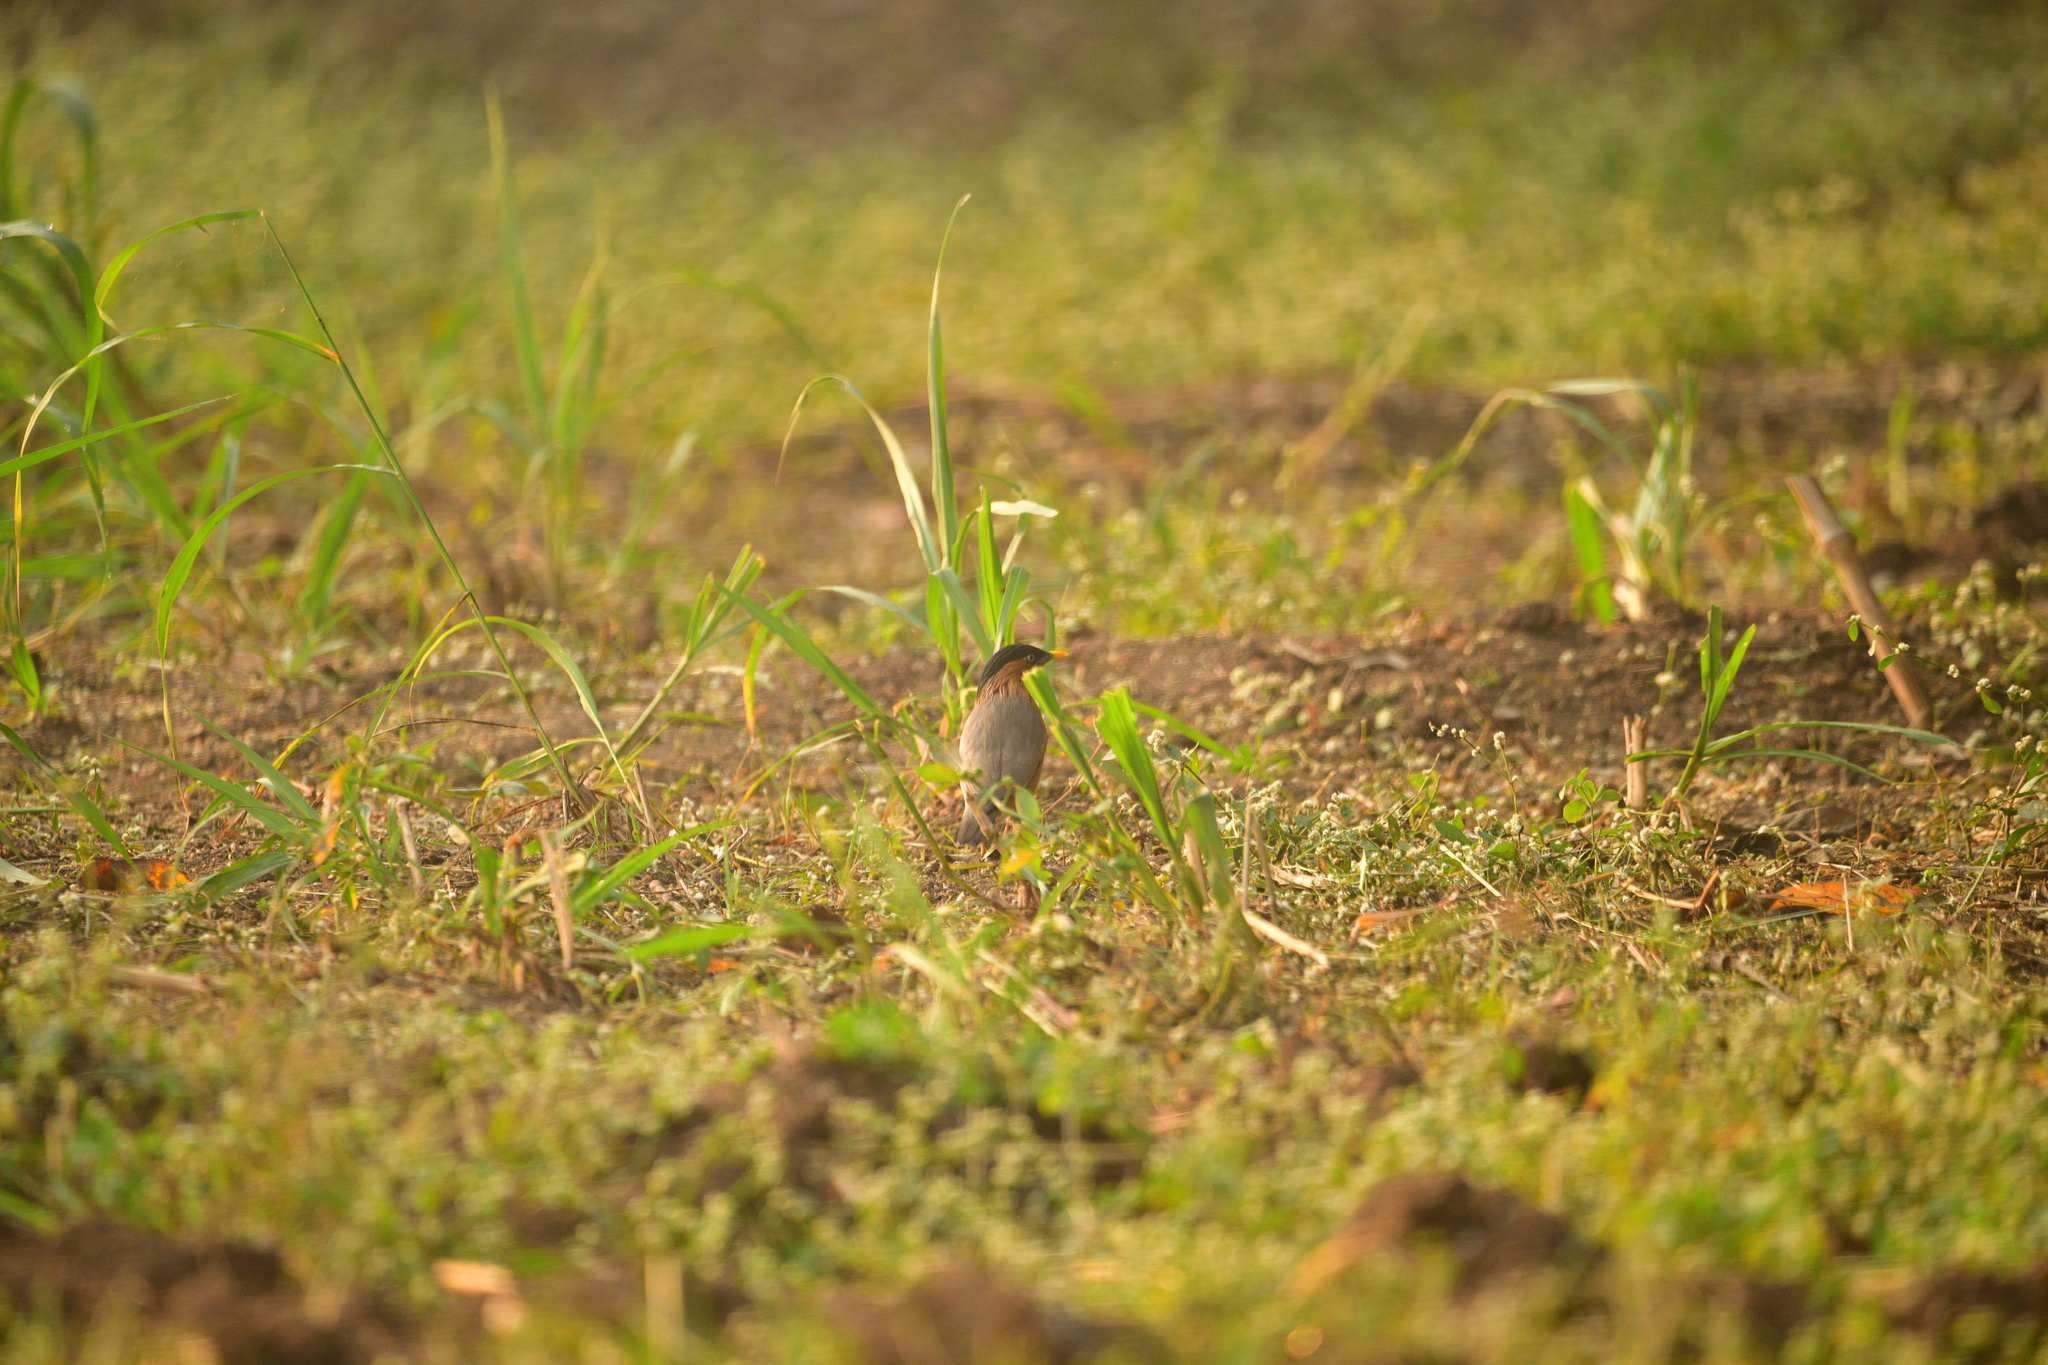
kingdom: Animalia
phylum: Chordata
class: Aves
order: Passeriformes
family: Sturnidae
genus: Sturnia
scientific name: Sturnia pagodarum
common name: Brahminy starling
